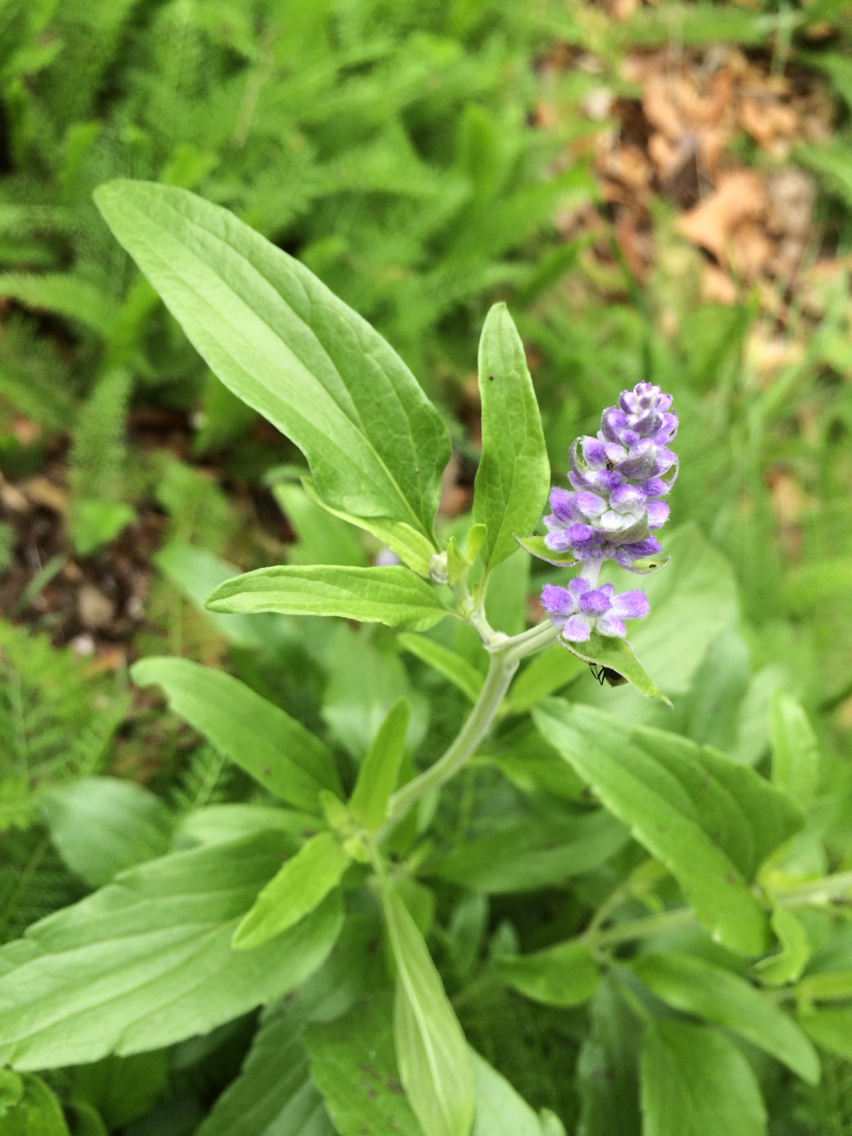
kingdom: Plantae
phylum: Tracheophyta
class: Magnoliopsida
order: Lamiales
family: Lamiaceae
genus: Salvia
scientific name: Salvia farinacea
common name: Mealy sage
